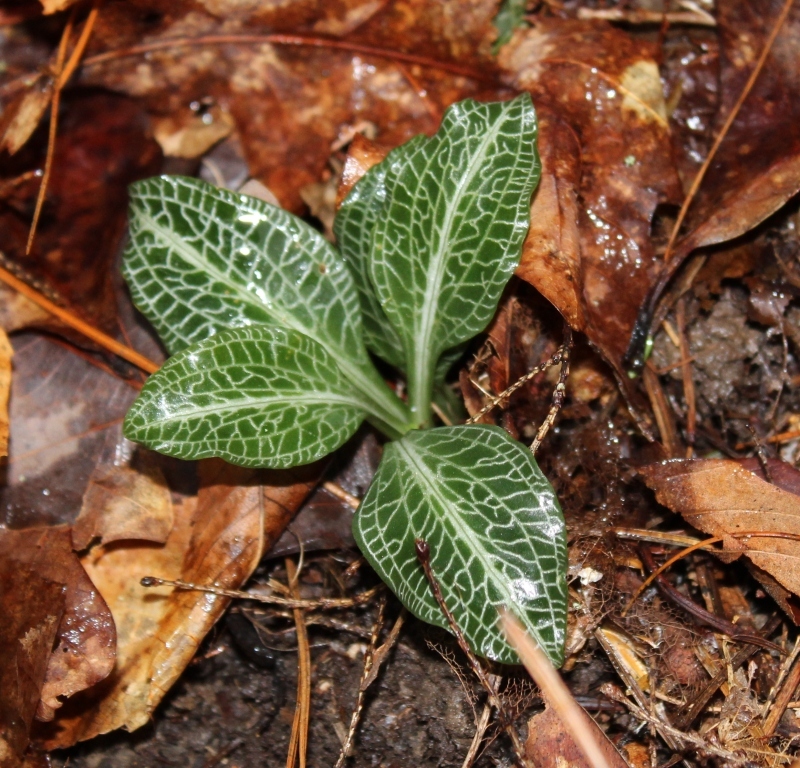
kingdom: Plantae
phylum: Tracheophyta
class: Liliopsida
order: Asparagales
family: Orchidaceae
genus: Goodyera
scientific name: Goodyera pubescens
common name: Downy rattlesnake-plantain
